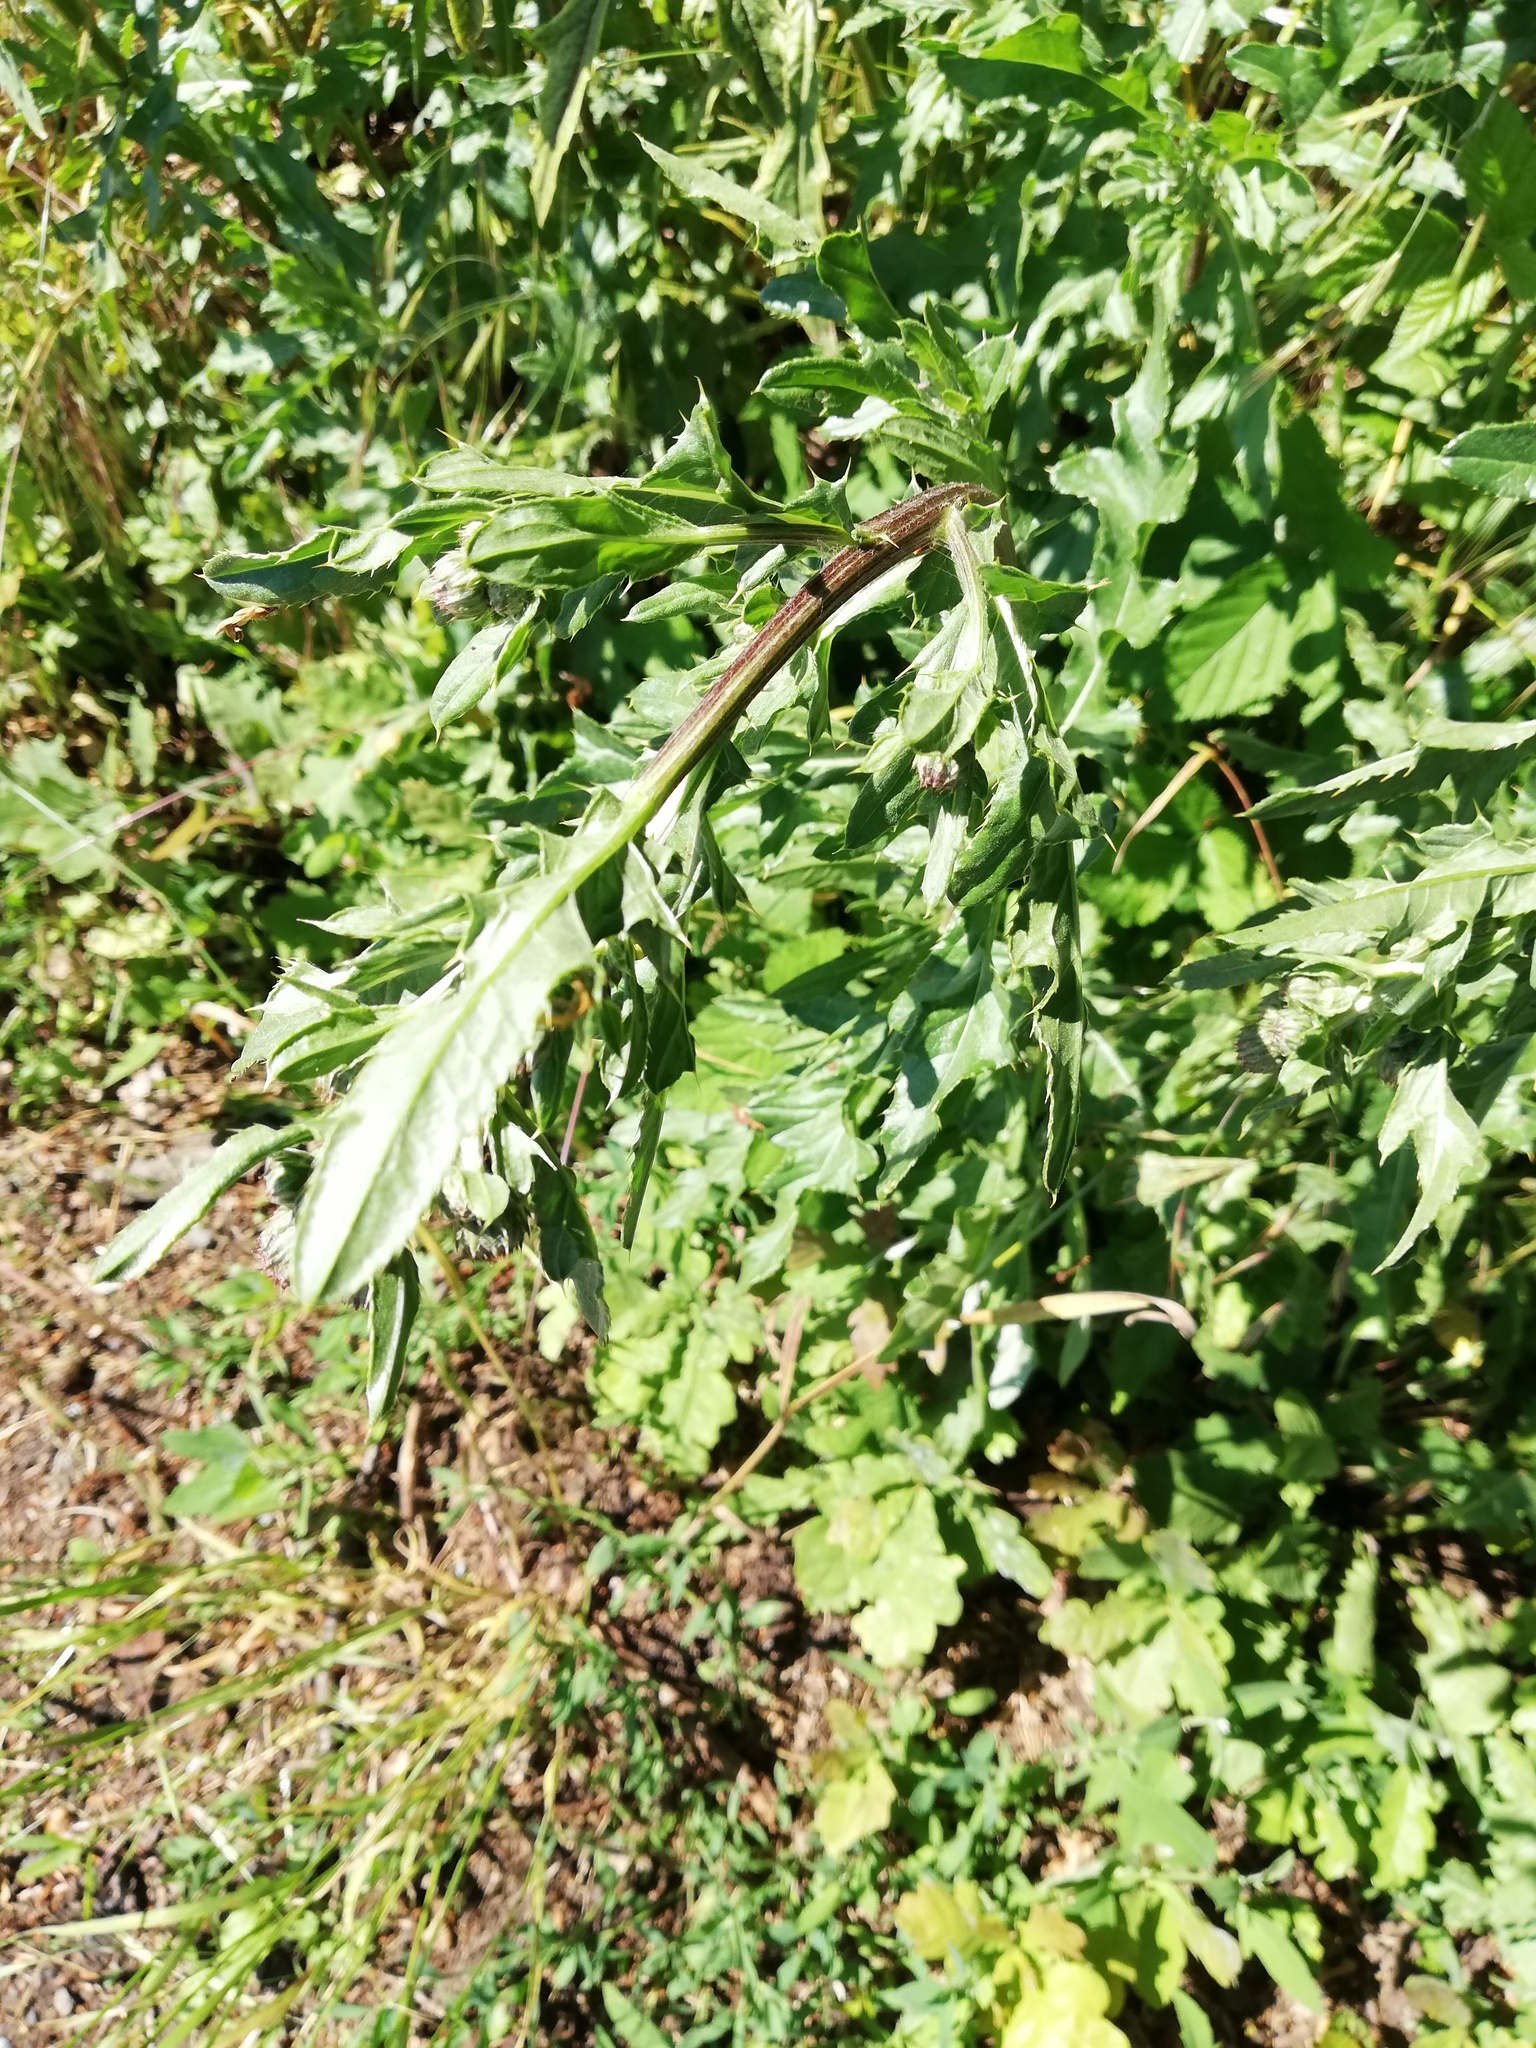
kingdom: Plantae
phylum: Tracheophyta
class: Magnoliopsida
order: Asterales
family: Asteraceae
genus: Cirsium
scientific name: Cirsium arvense
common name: Creeping thistle
